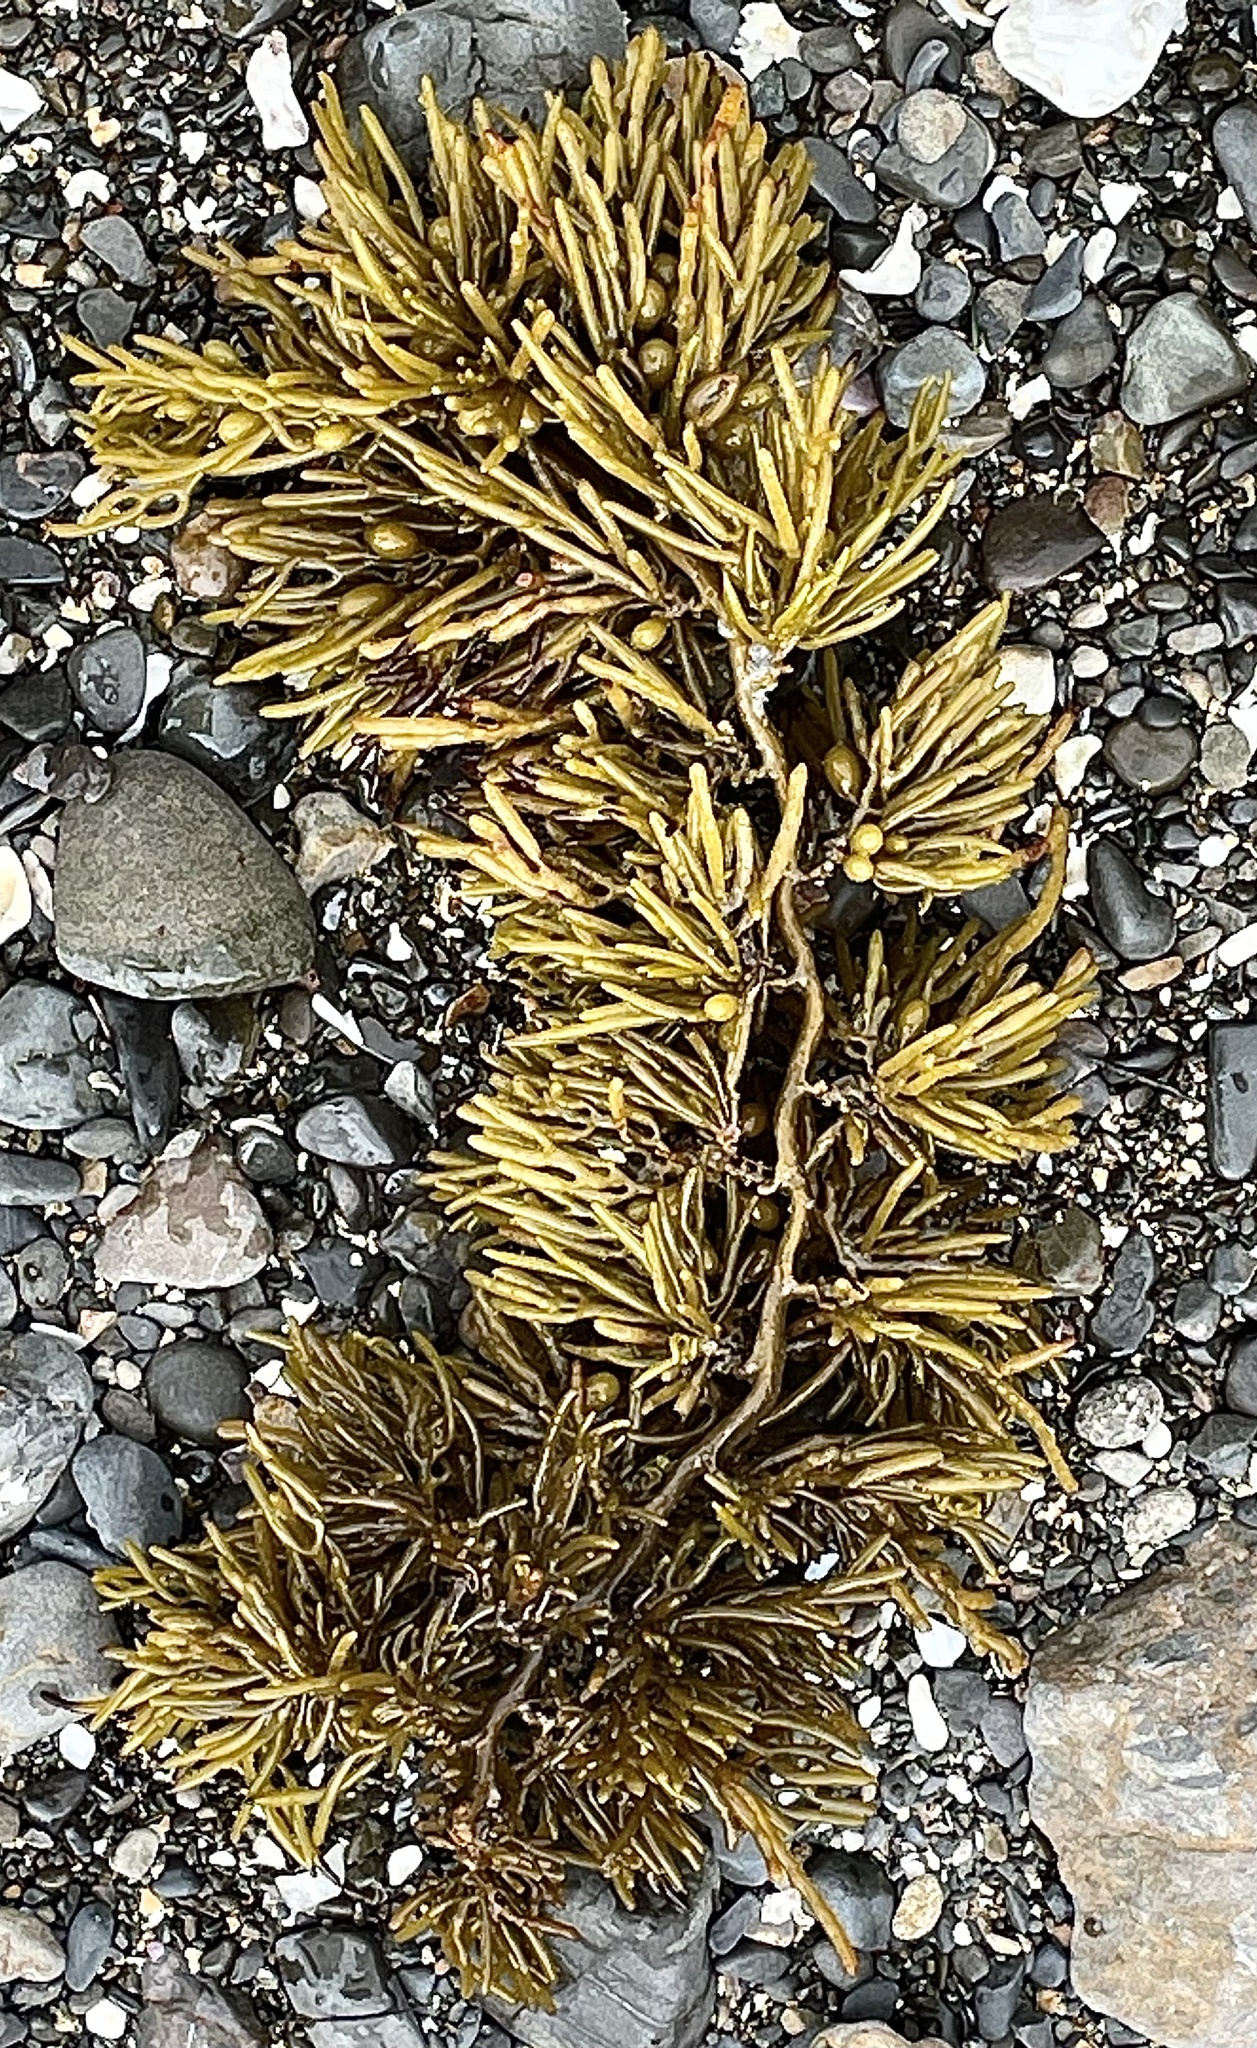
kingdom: Chromista
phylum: Ochrophyta
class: Phaeophyceae
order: Fucales
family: Sargassaceae
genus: Cystophora
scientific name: Cystophora torulosa
